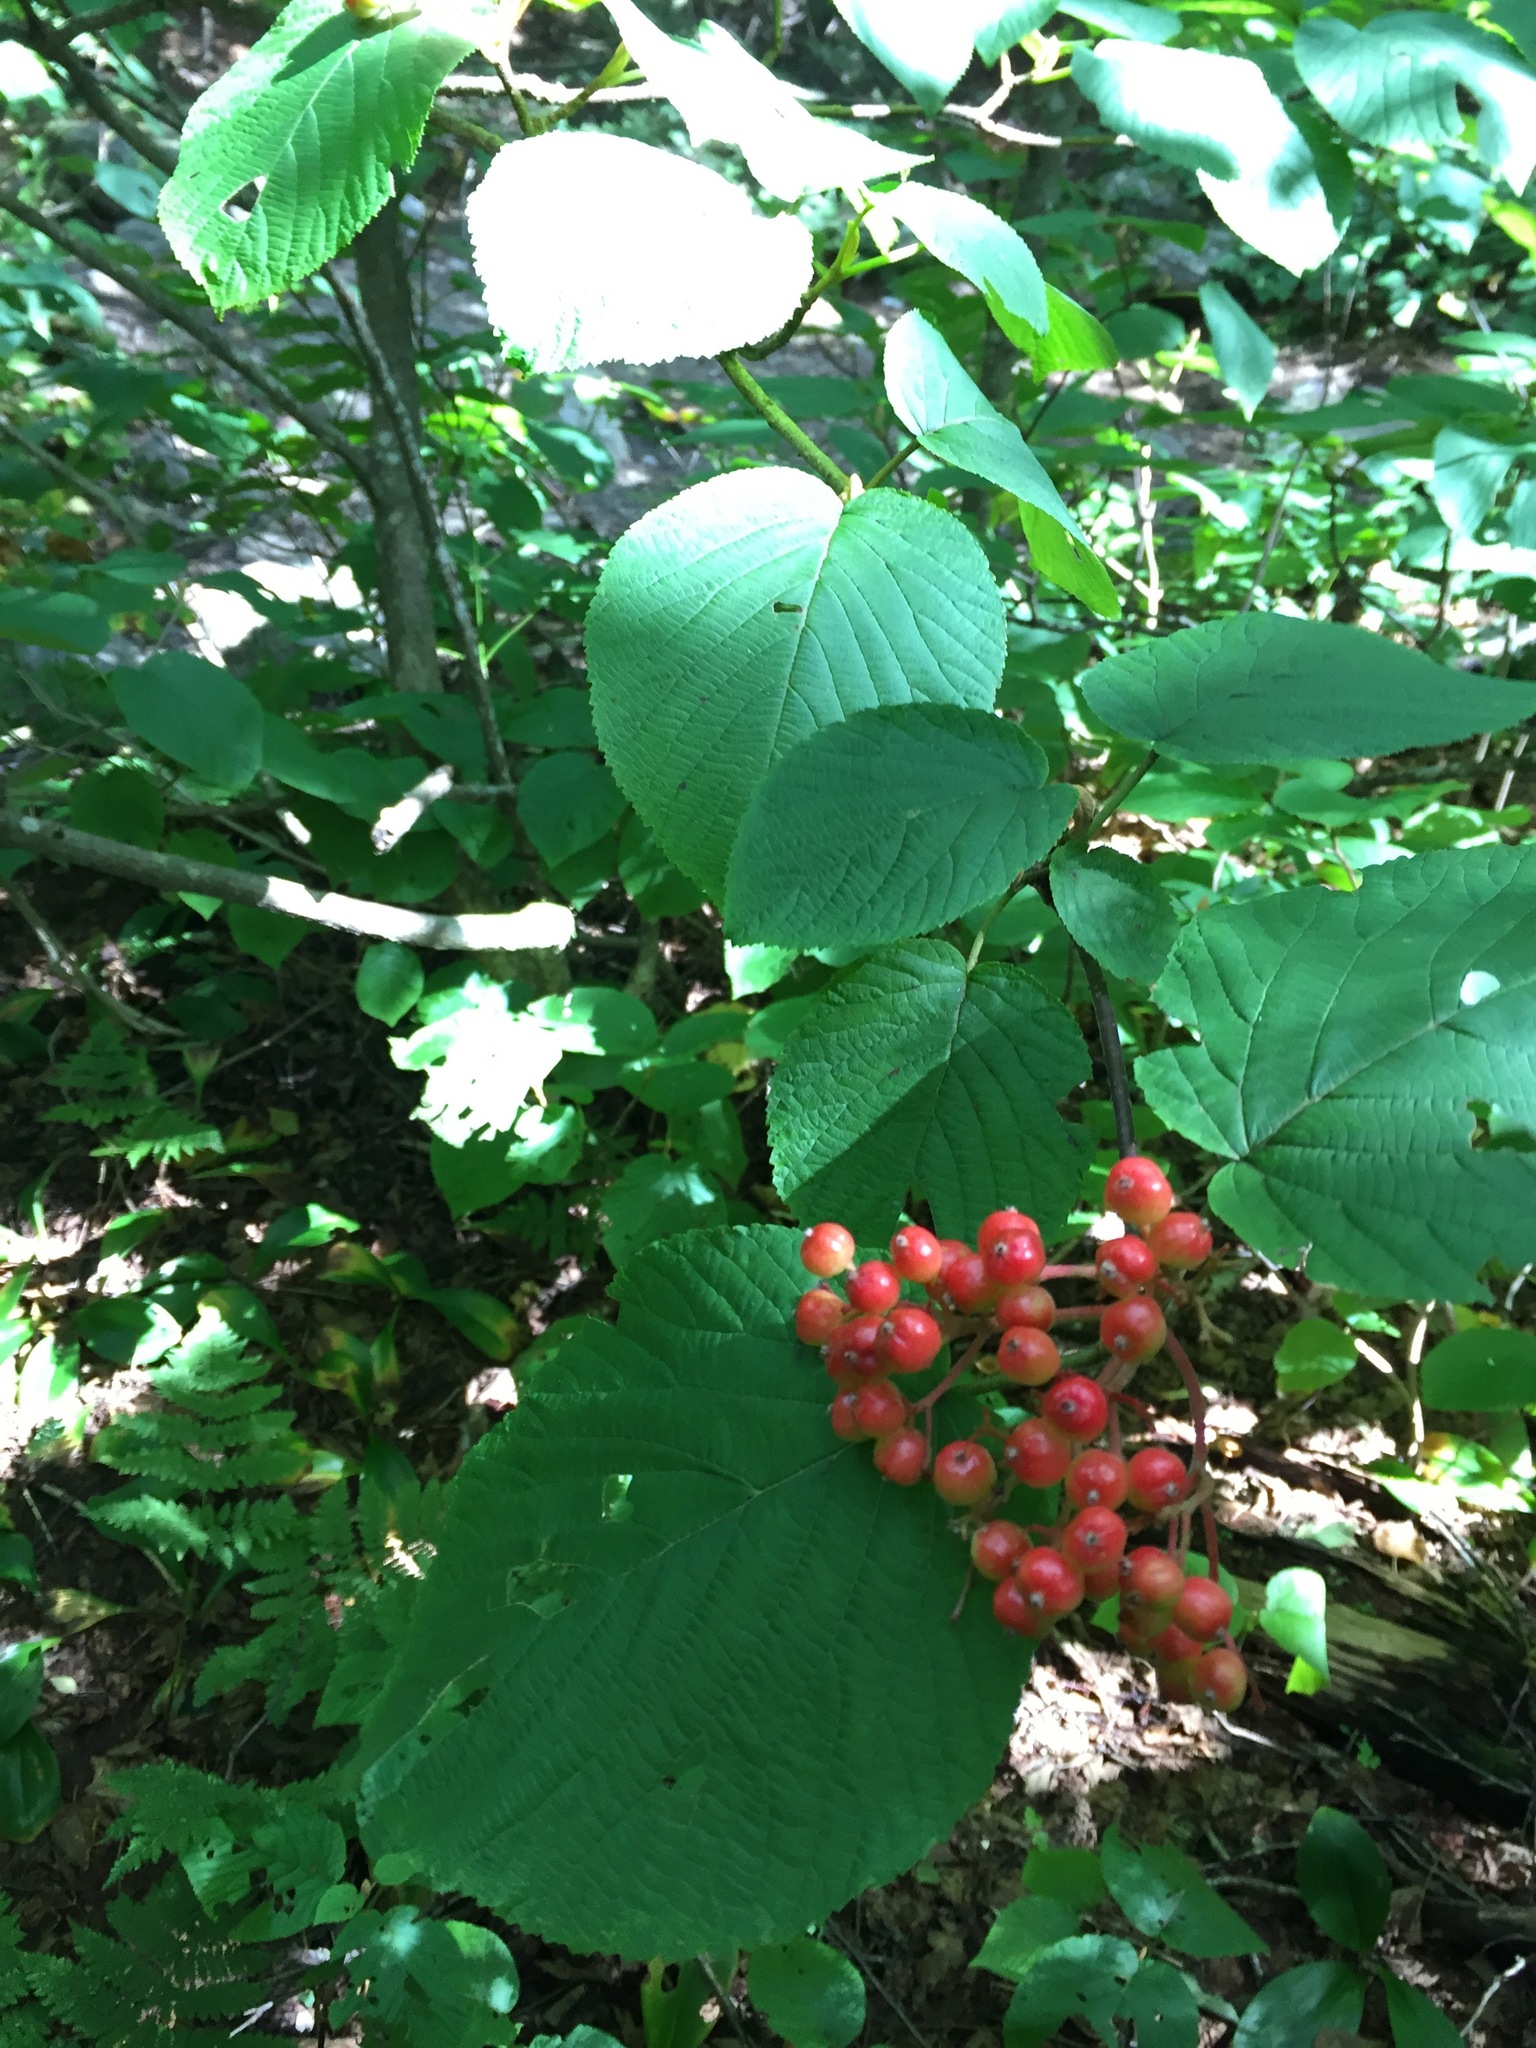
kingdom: Plantae
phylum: Tracheophyta
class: Magnoliopsida
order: Dipsacales
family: Viburnaceae
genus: Viburnum
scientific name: Viburnum lantanoides
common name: Hobblebush
